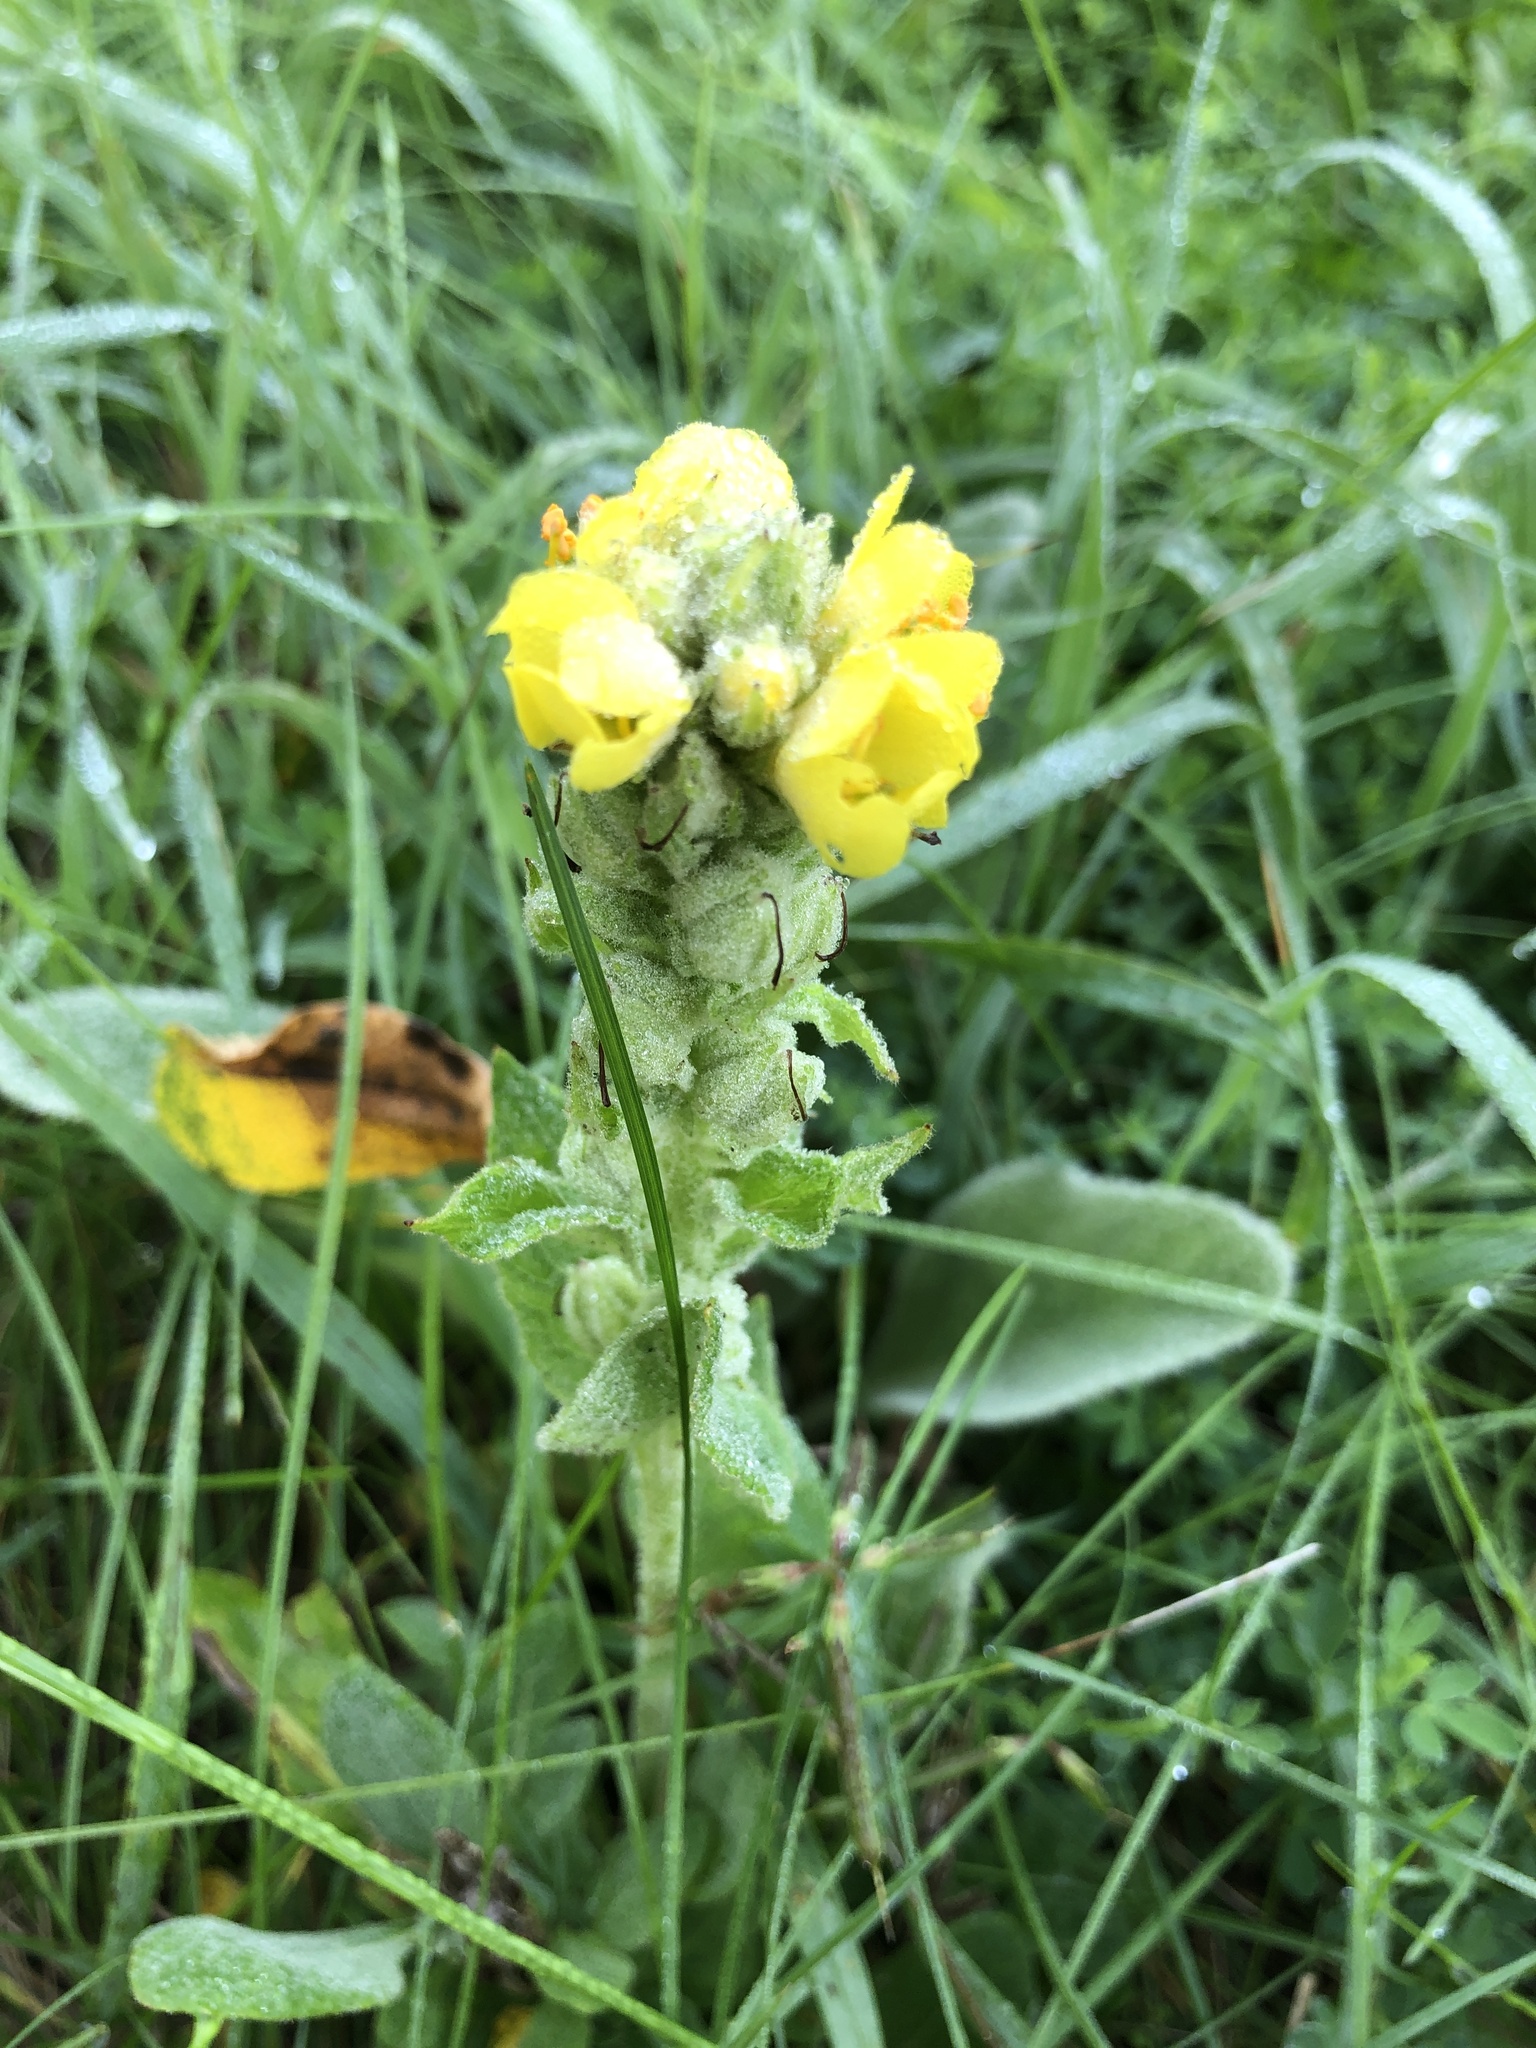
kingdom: Plantae
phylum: Tracheophyta
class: Magnoliopsida
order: Lamiales
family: Scrophulariaceae
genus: Verbascum
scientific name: Verbascum thapsus
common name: Common mullein
